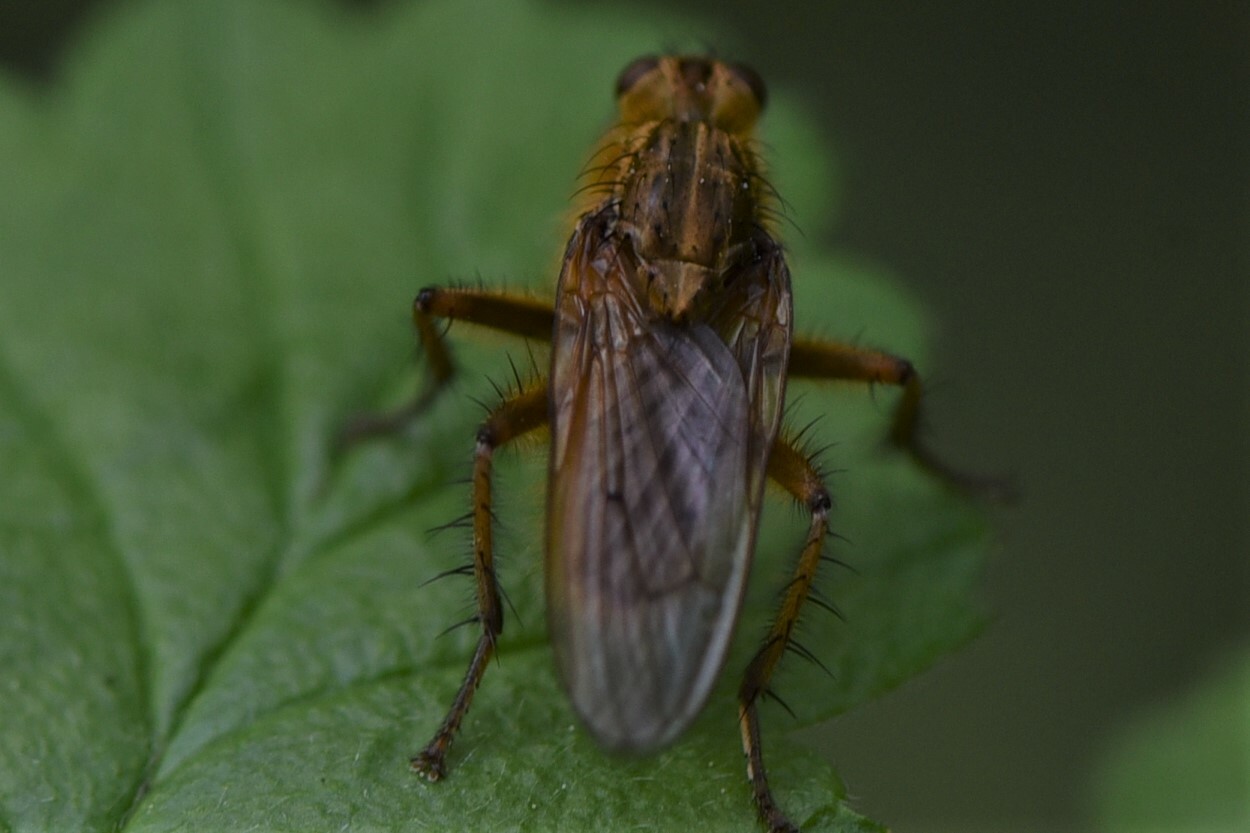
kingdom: Animalia
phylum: Arthropoda
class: Insecta
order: Diptera
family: Scathophagidae
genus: Scathophaga
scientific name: Scathophaga stercoraria
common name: Yellow dung fly
